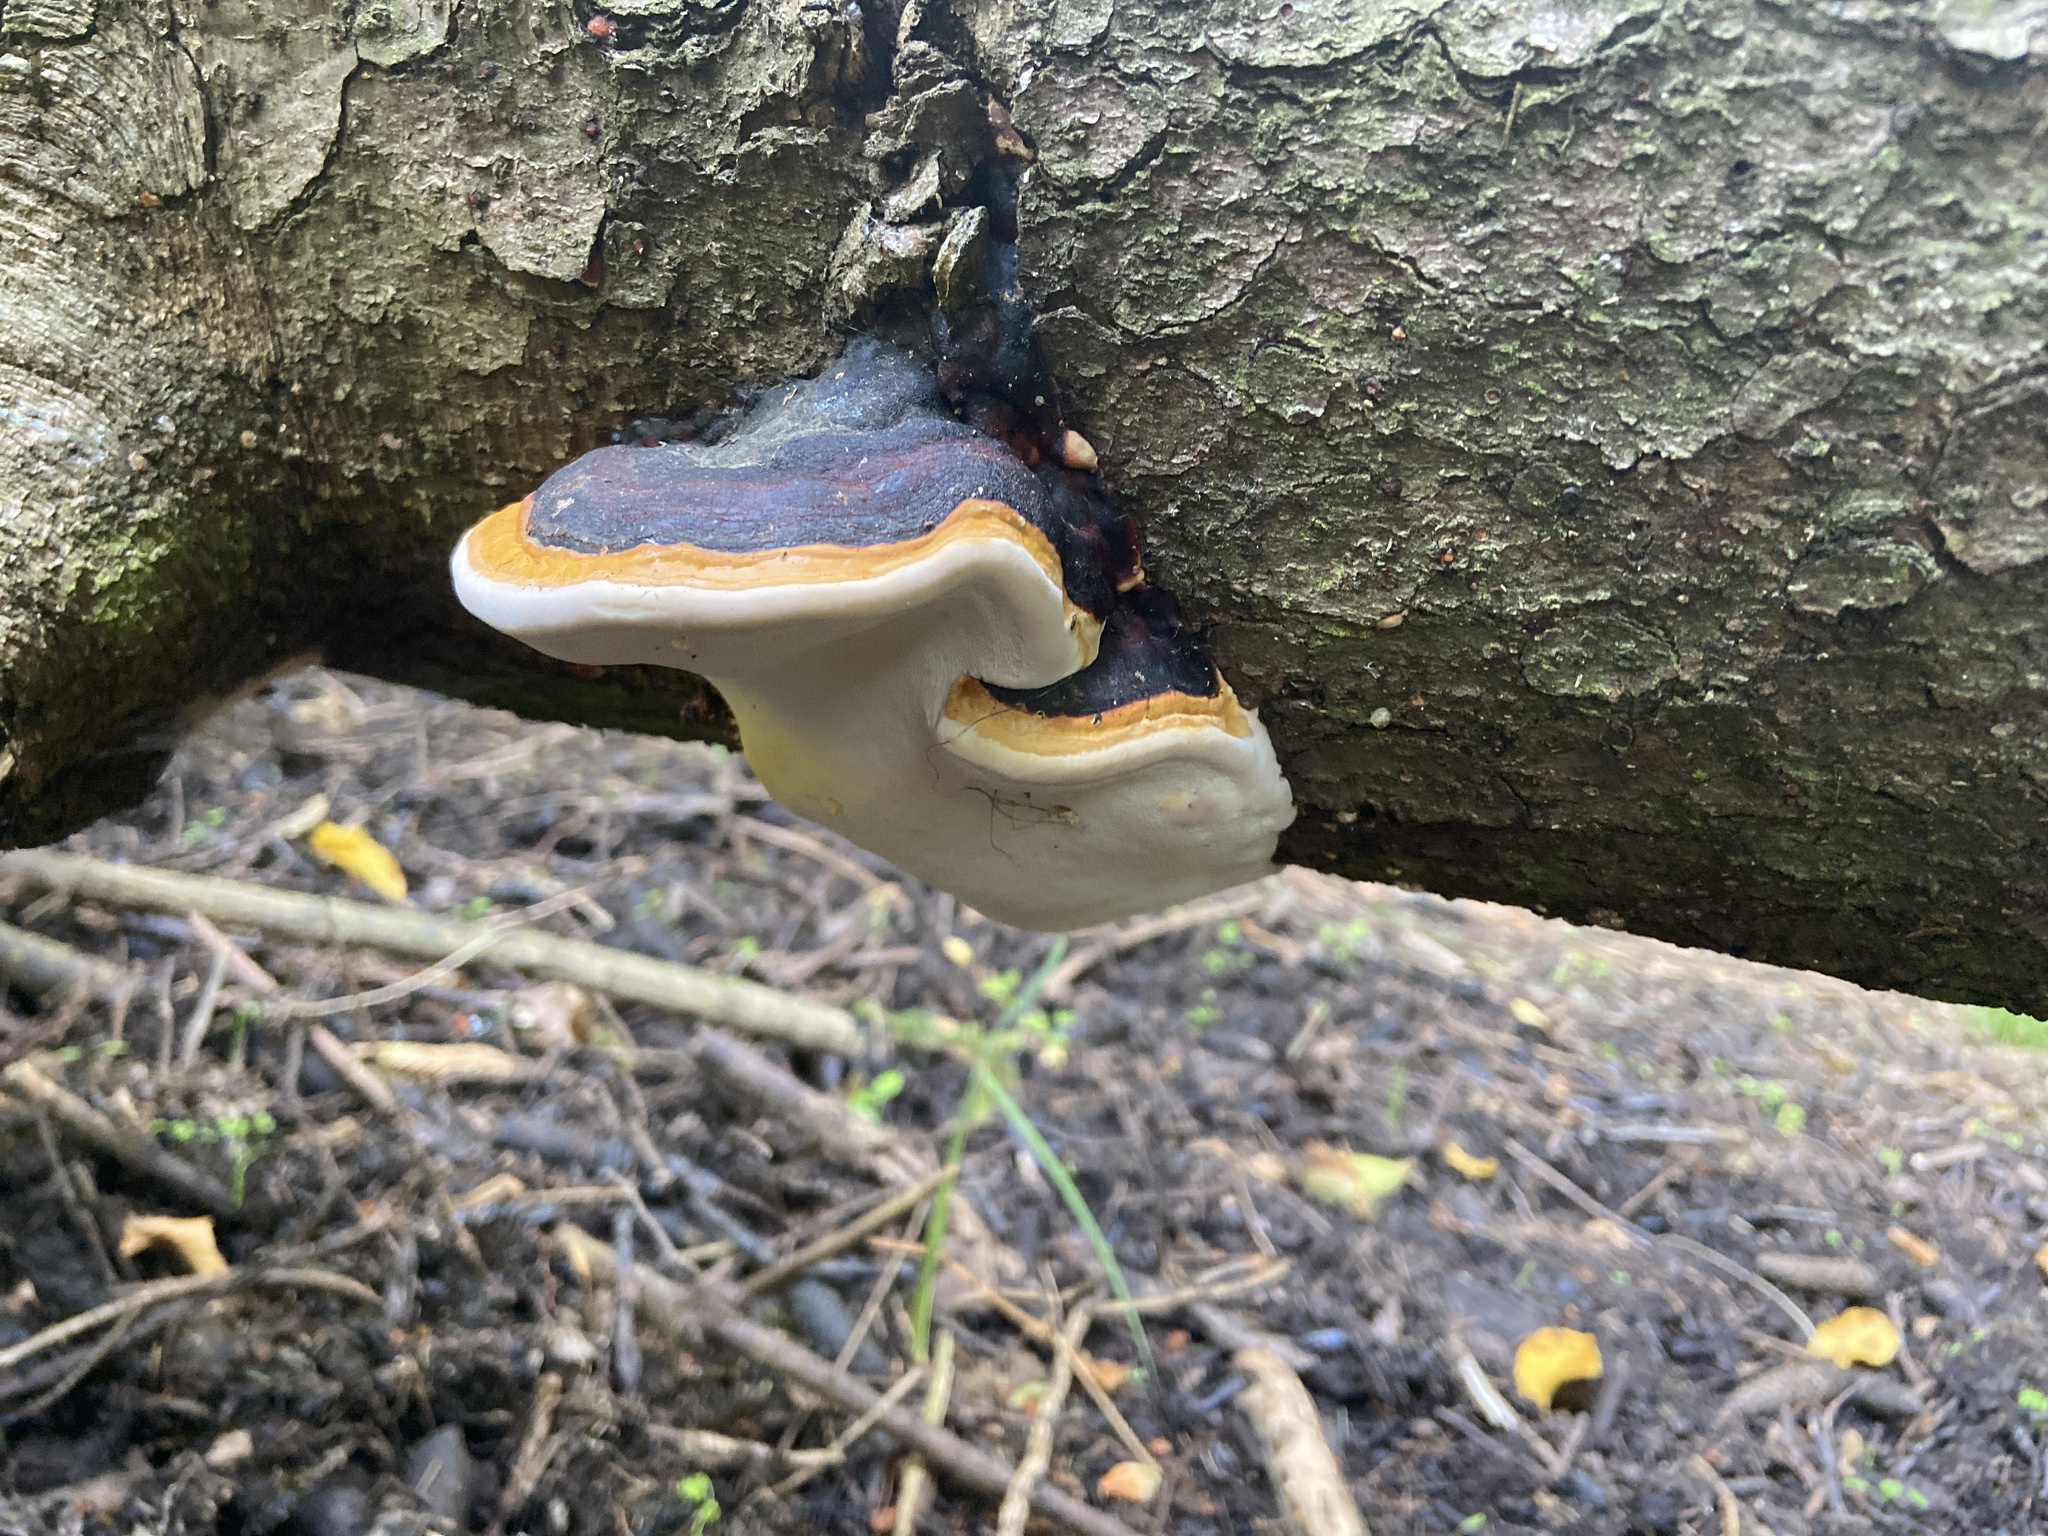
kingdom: Fungi
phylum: Basidiomycota
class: Agaricomycetes
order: Polyporales
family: Fomitopsidaceae
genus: Fomitopsis
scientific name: Fomitopsis pinicola
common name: Red-belted bracket
